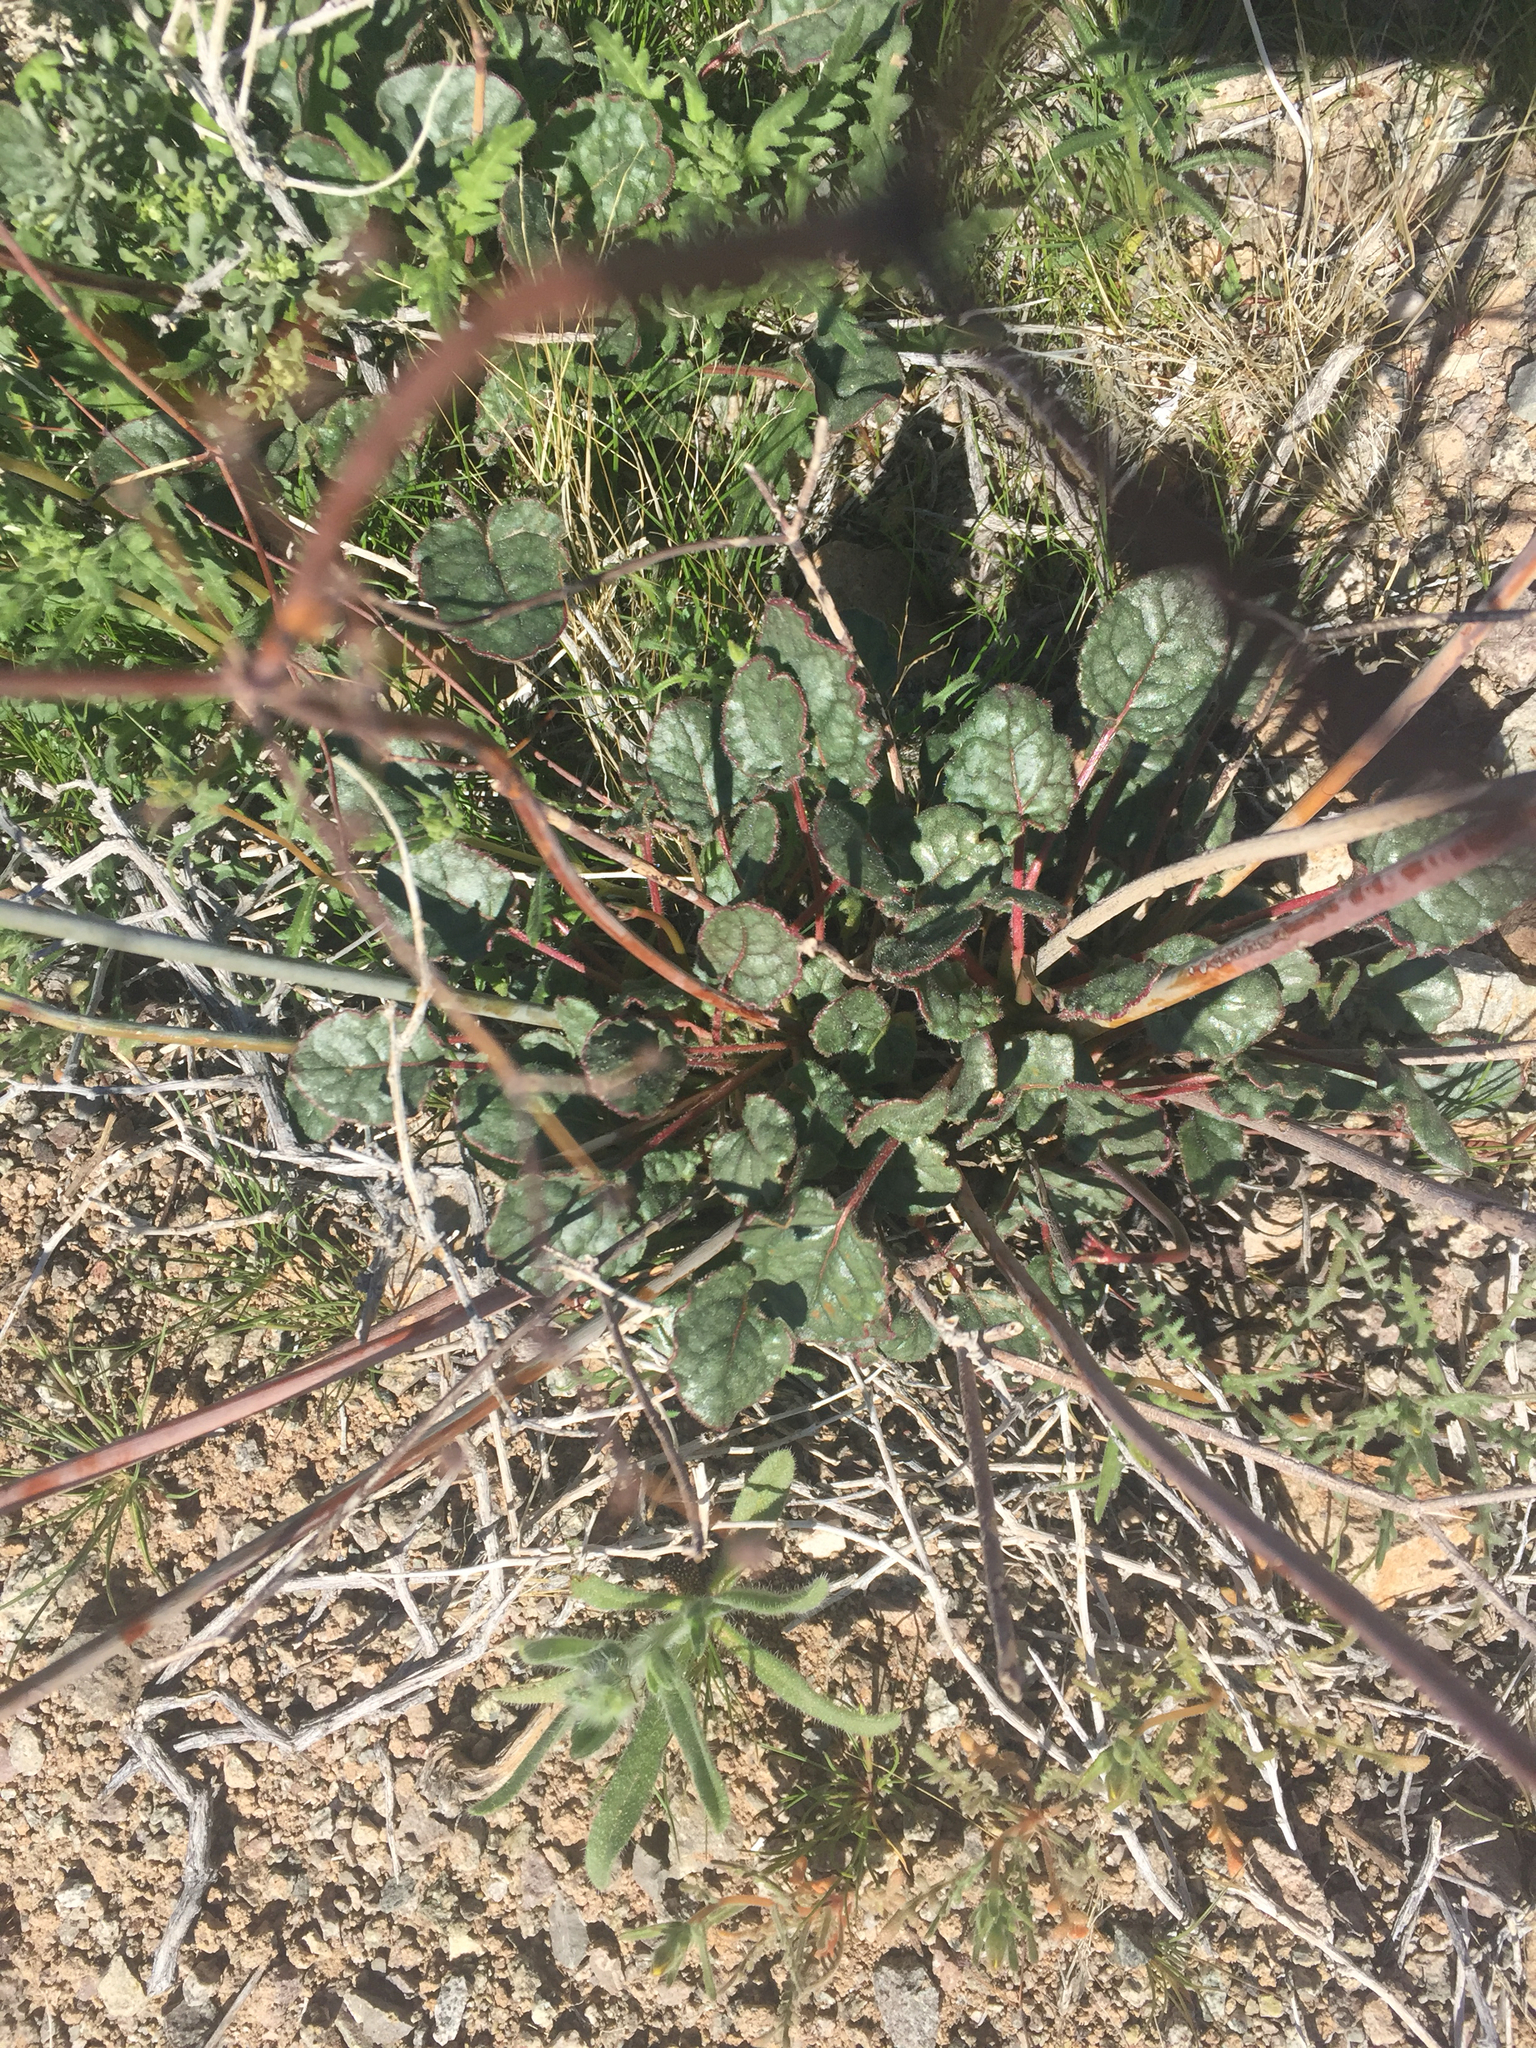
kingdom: Plantae
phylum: Tracheophyta
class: Magnoliopsida
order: Caryophyllales
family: Polygonaceae
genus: Eriogonum
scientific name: Eriogonum inflatum
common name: Desert trumpet
